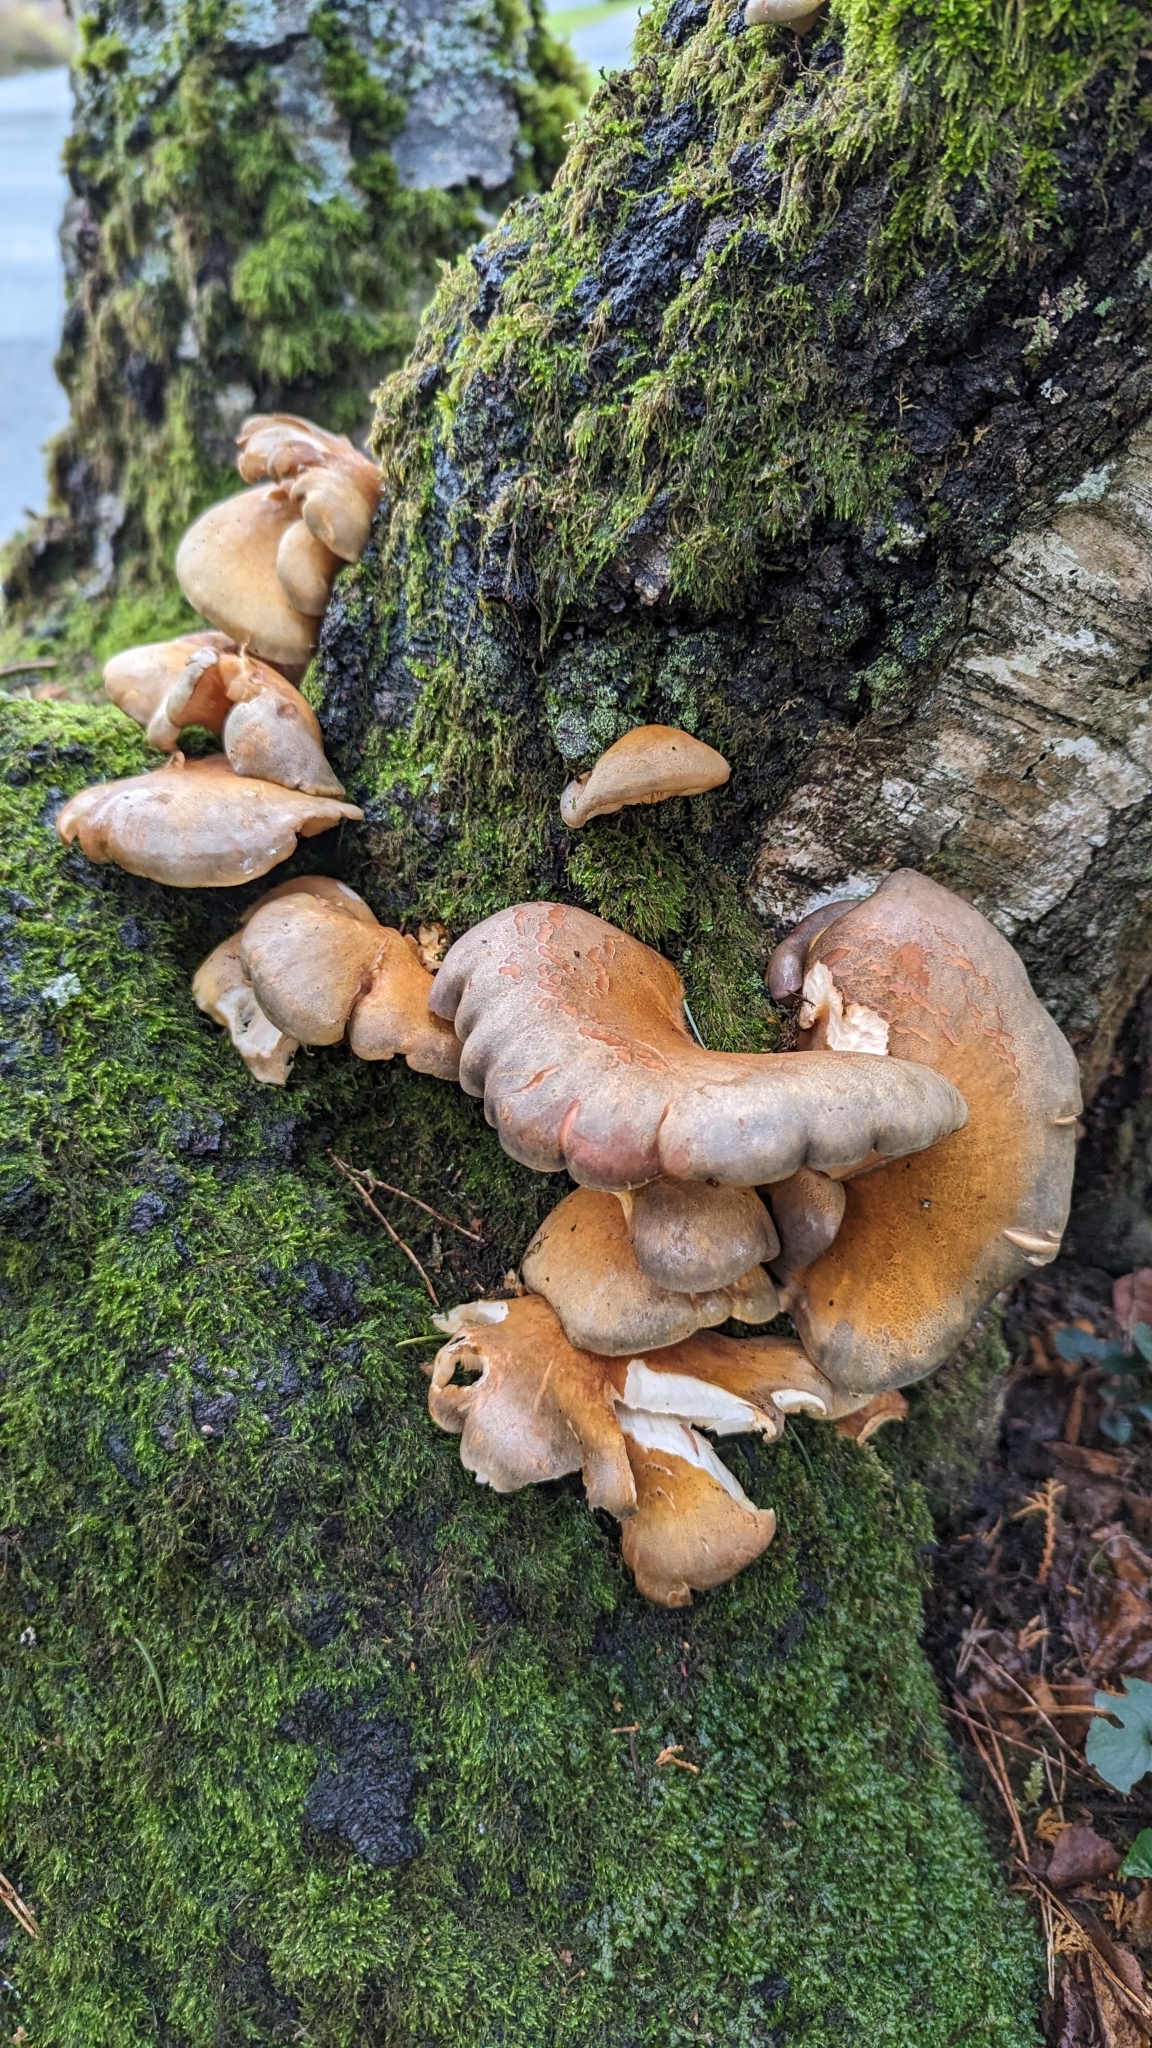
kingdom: Fungi
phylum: Basidiomycota
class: Agaricomycetes
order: Agaricales
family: Sarcomyxaceae
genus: Sarcomyxa
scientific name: Sarcomyxa serotina
